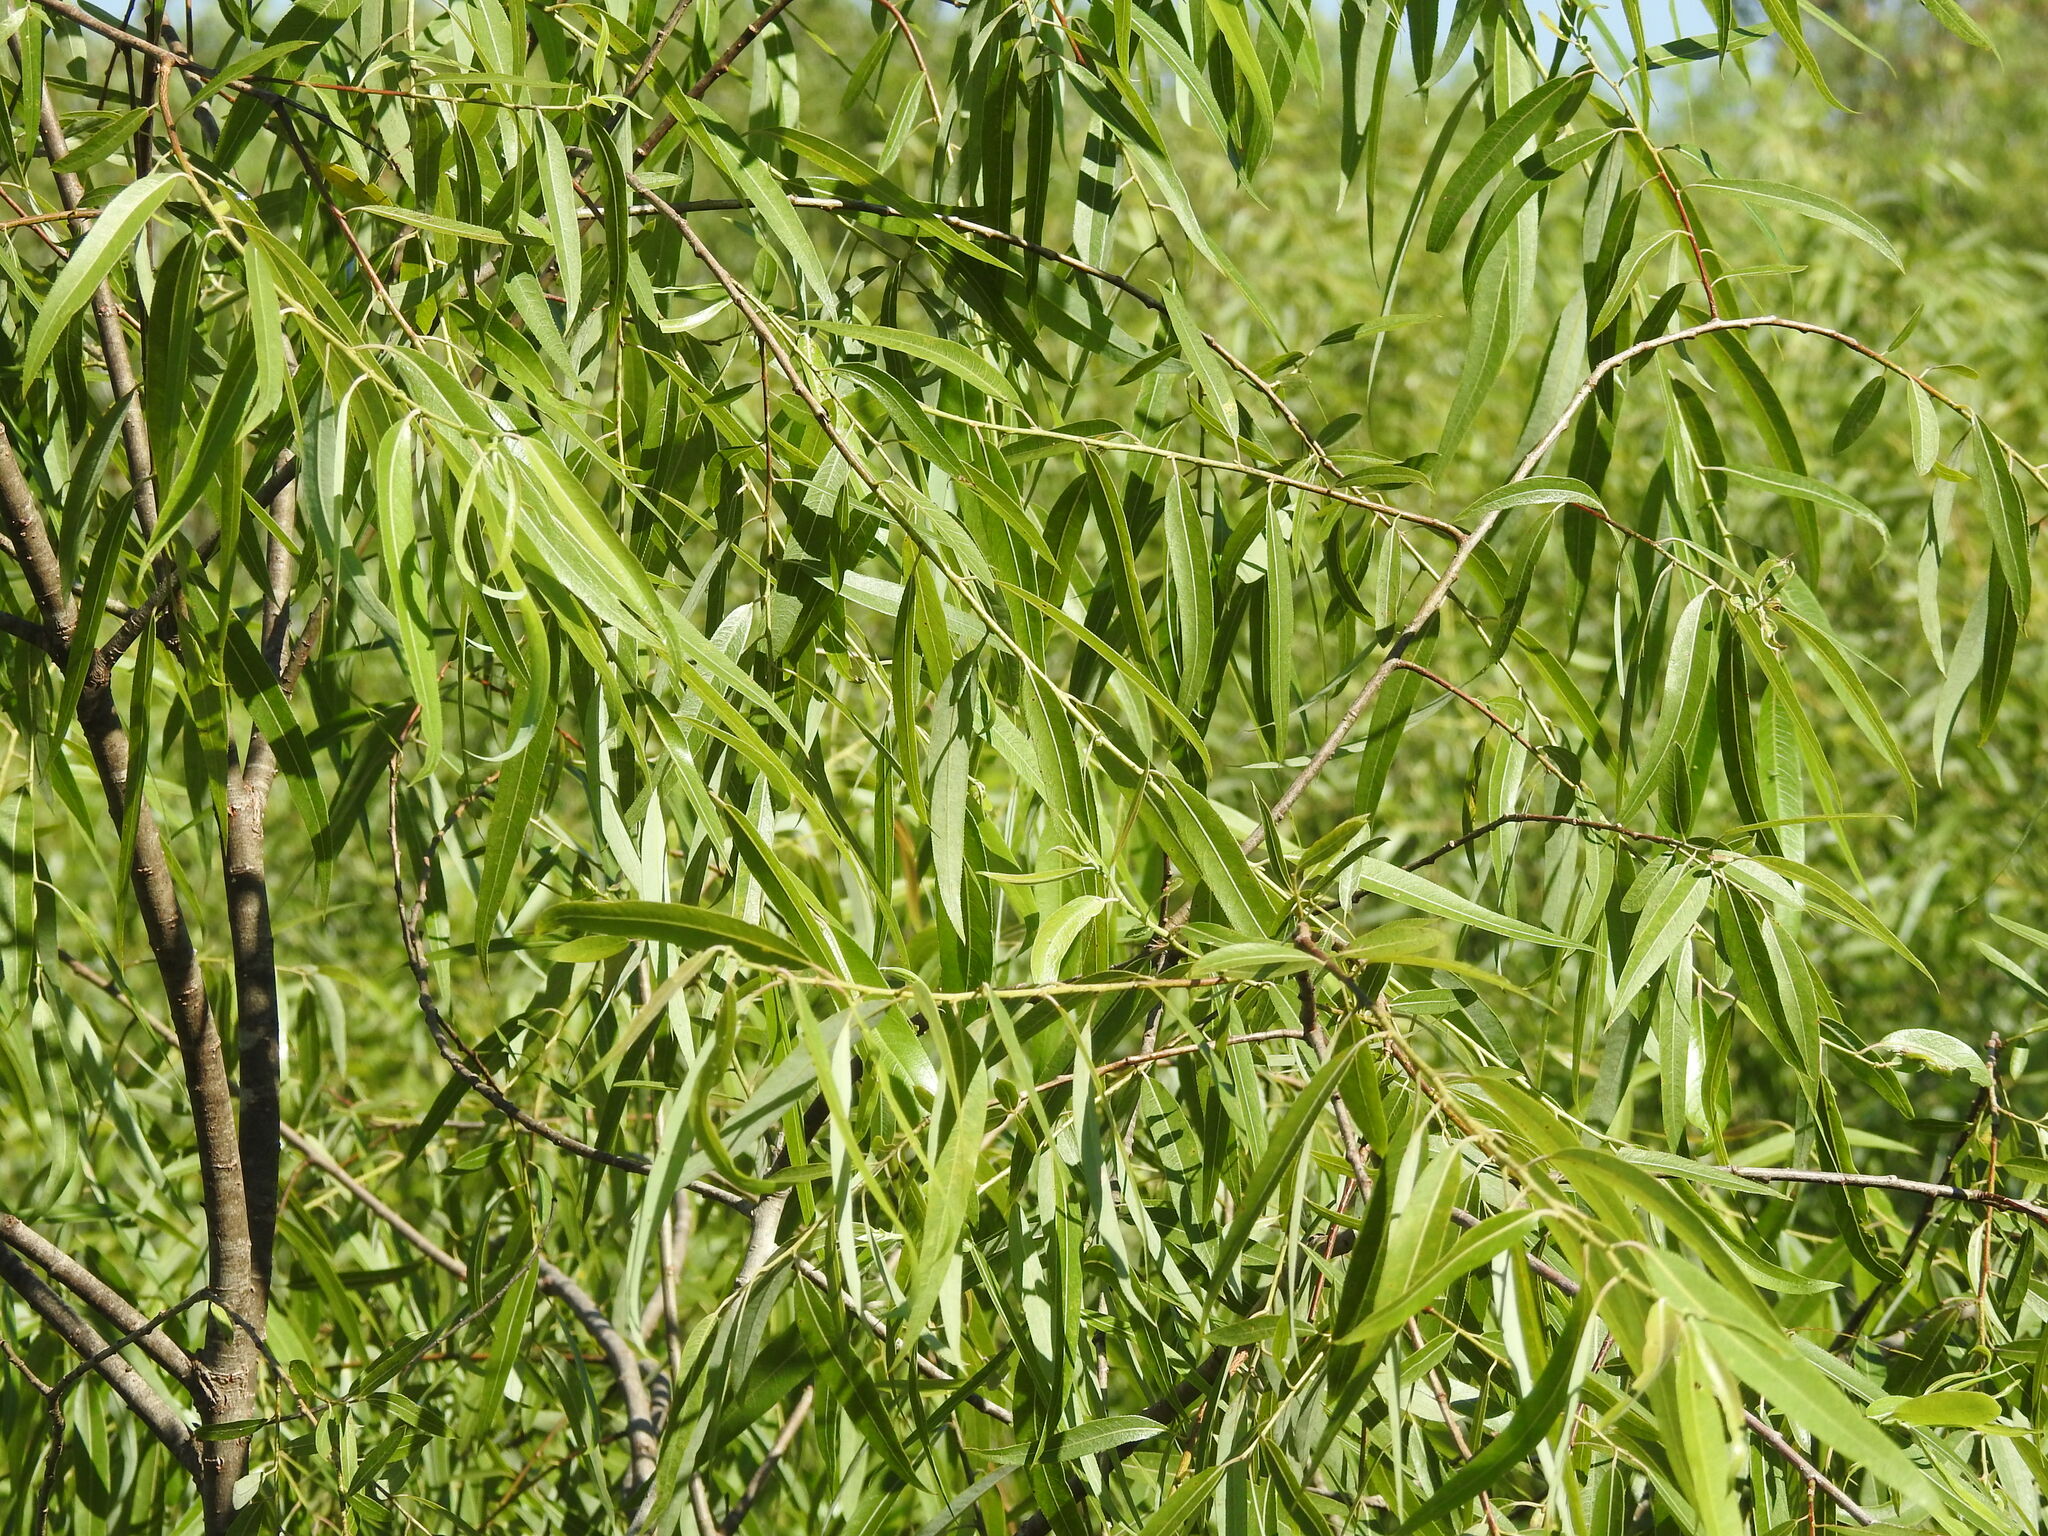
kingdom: Plantae
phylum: Tracheophyta
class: Magnoliopsida
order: Malpighiales
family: Salicaceae
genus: Salix
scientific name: Salix caroliniana
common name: Carolina willow
